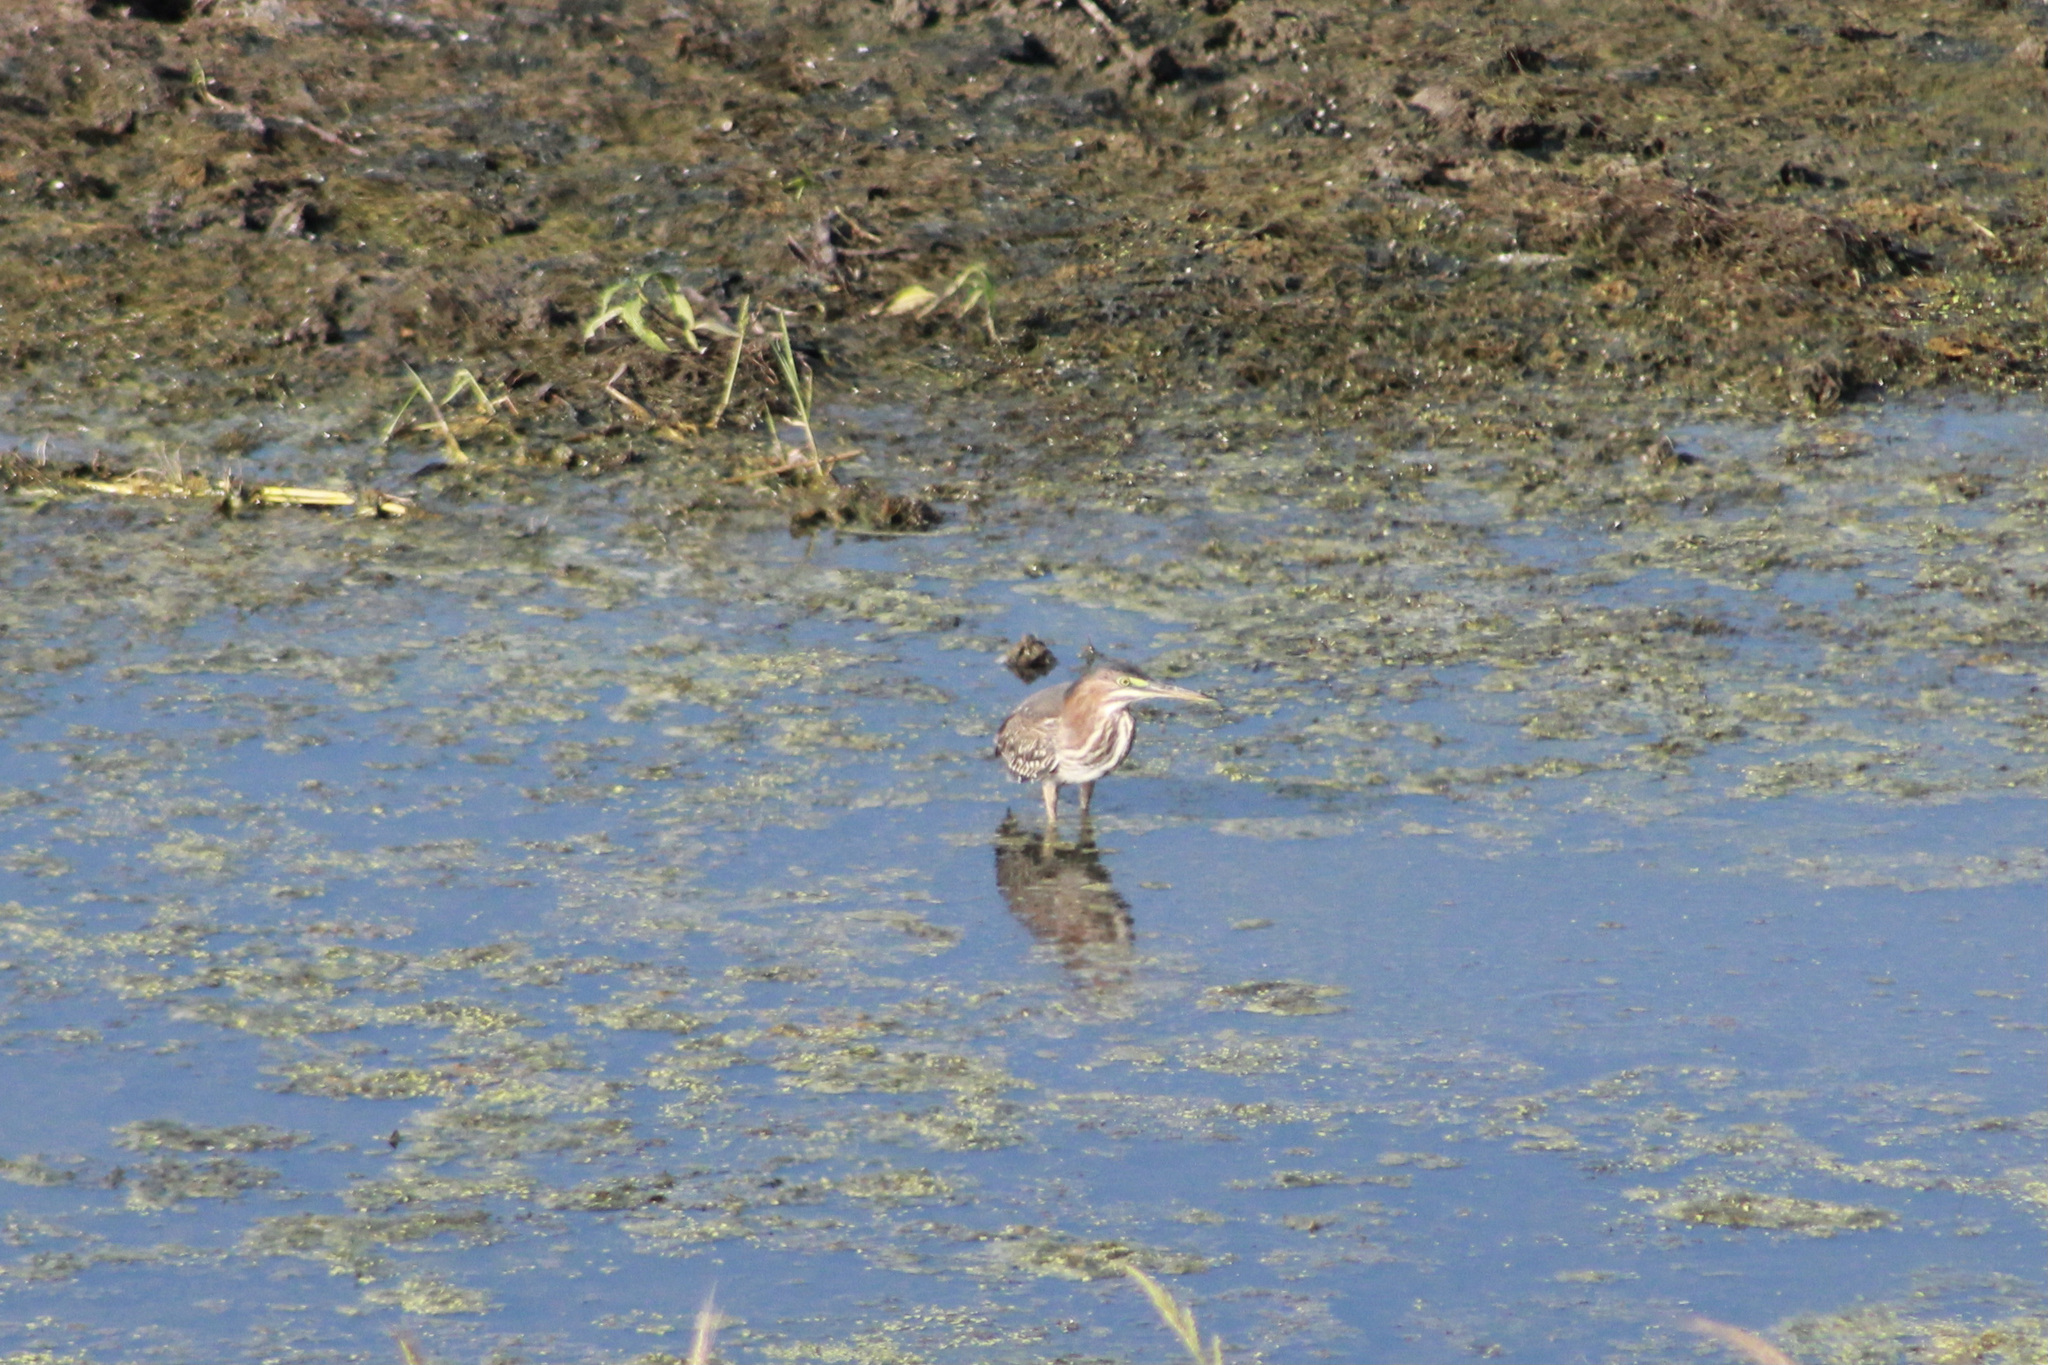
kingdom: Animalia
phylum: Chordata
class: Aves
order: Pelecaniformes
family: Ardeidae
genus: Butorides
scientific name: Butorides virescens
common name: Green heron
